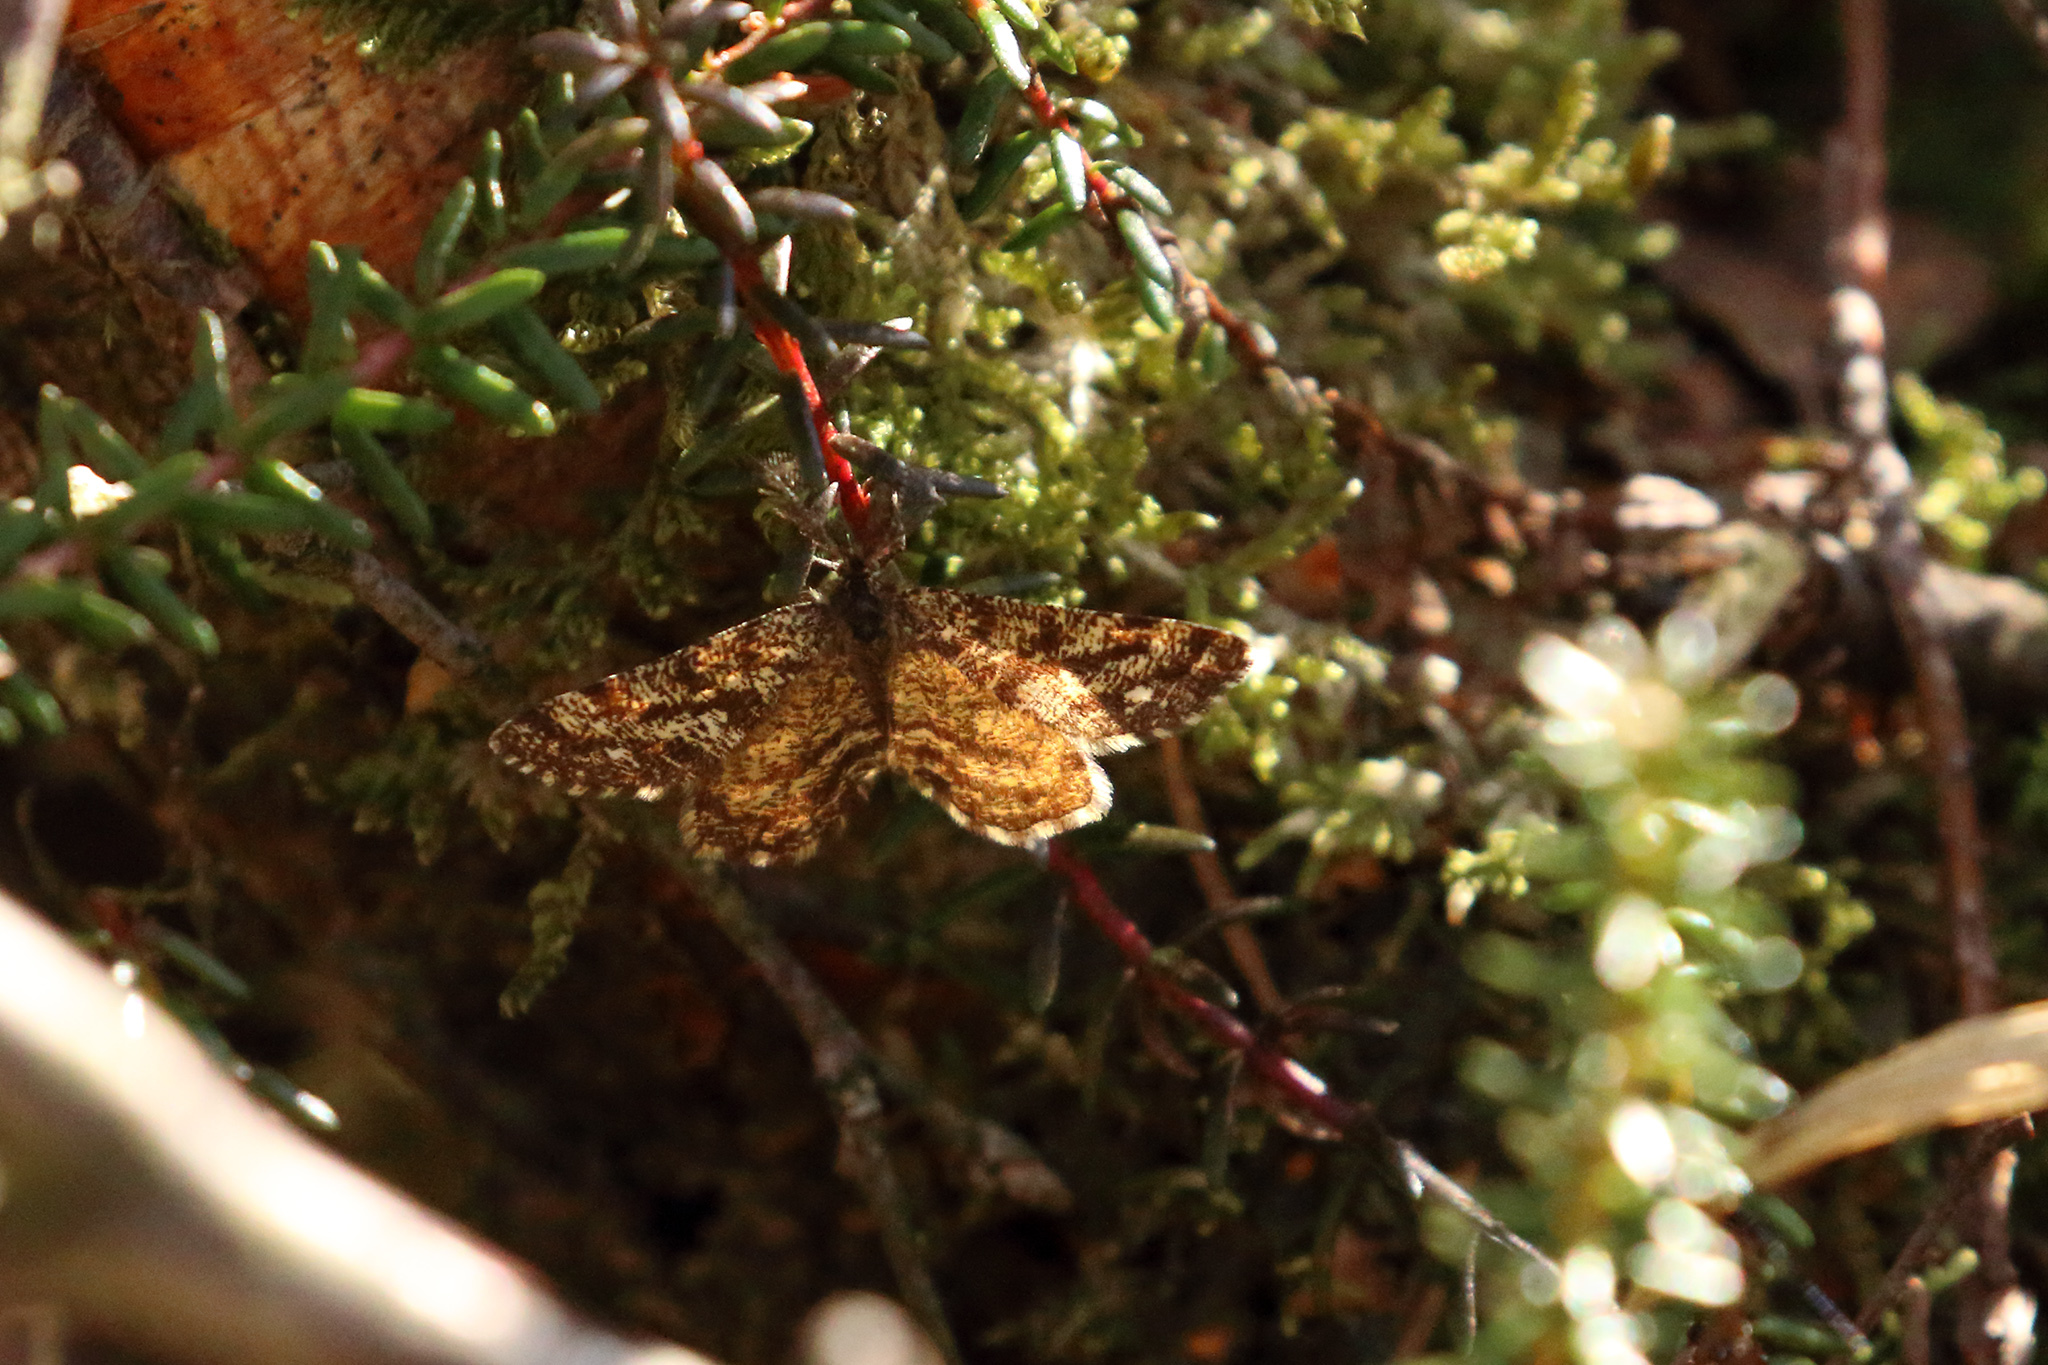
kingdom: Animalia
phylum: Arthropoda
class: Insecta
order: Lepidoptera
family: Geometridae
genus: Ematurga
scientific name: Ematurga atomaria
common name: Common heath
